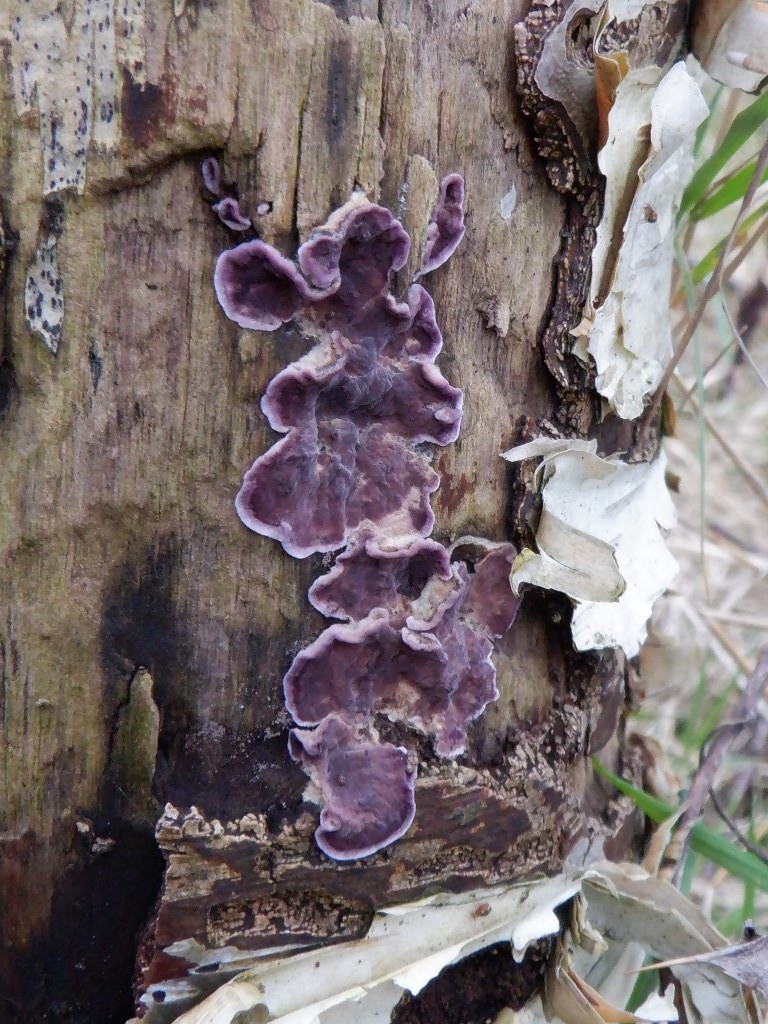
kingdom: Fungi
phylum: Basidiomycota
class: Agaricomycetes
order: Agaricales
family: Cyphellaceae
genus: Chondrostereum
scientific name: Chondrostereum purpureum
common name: Silver leaf disease
